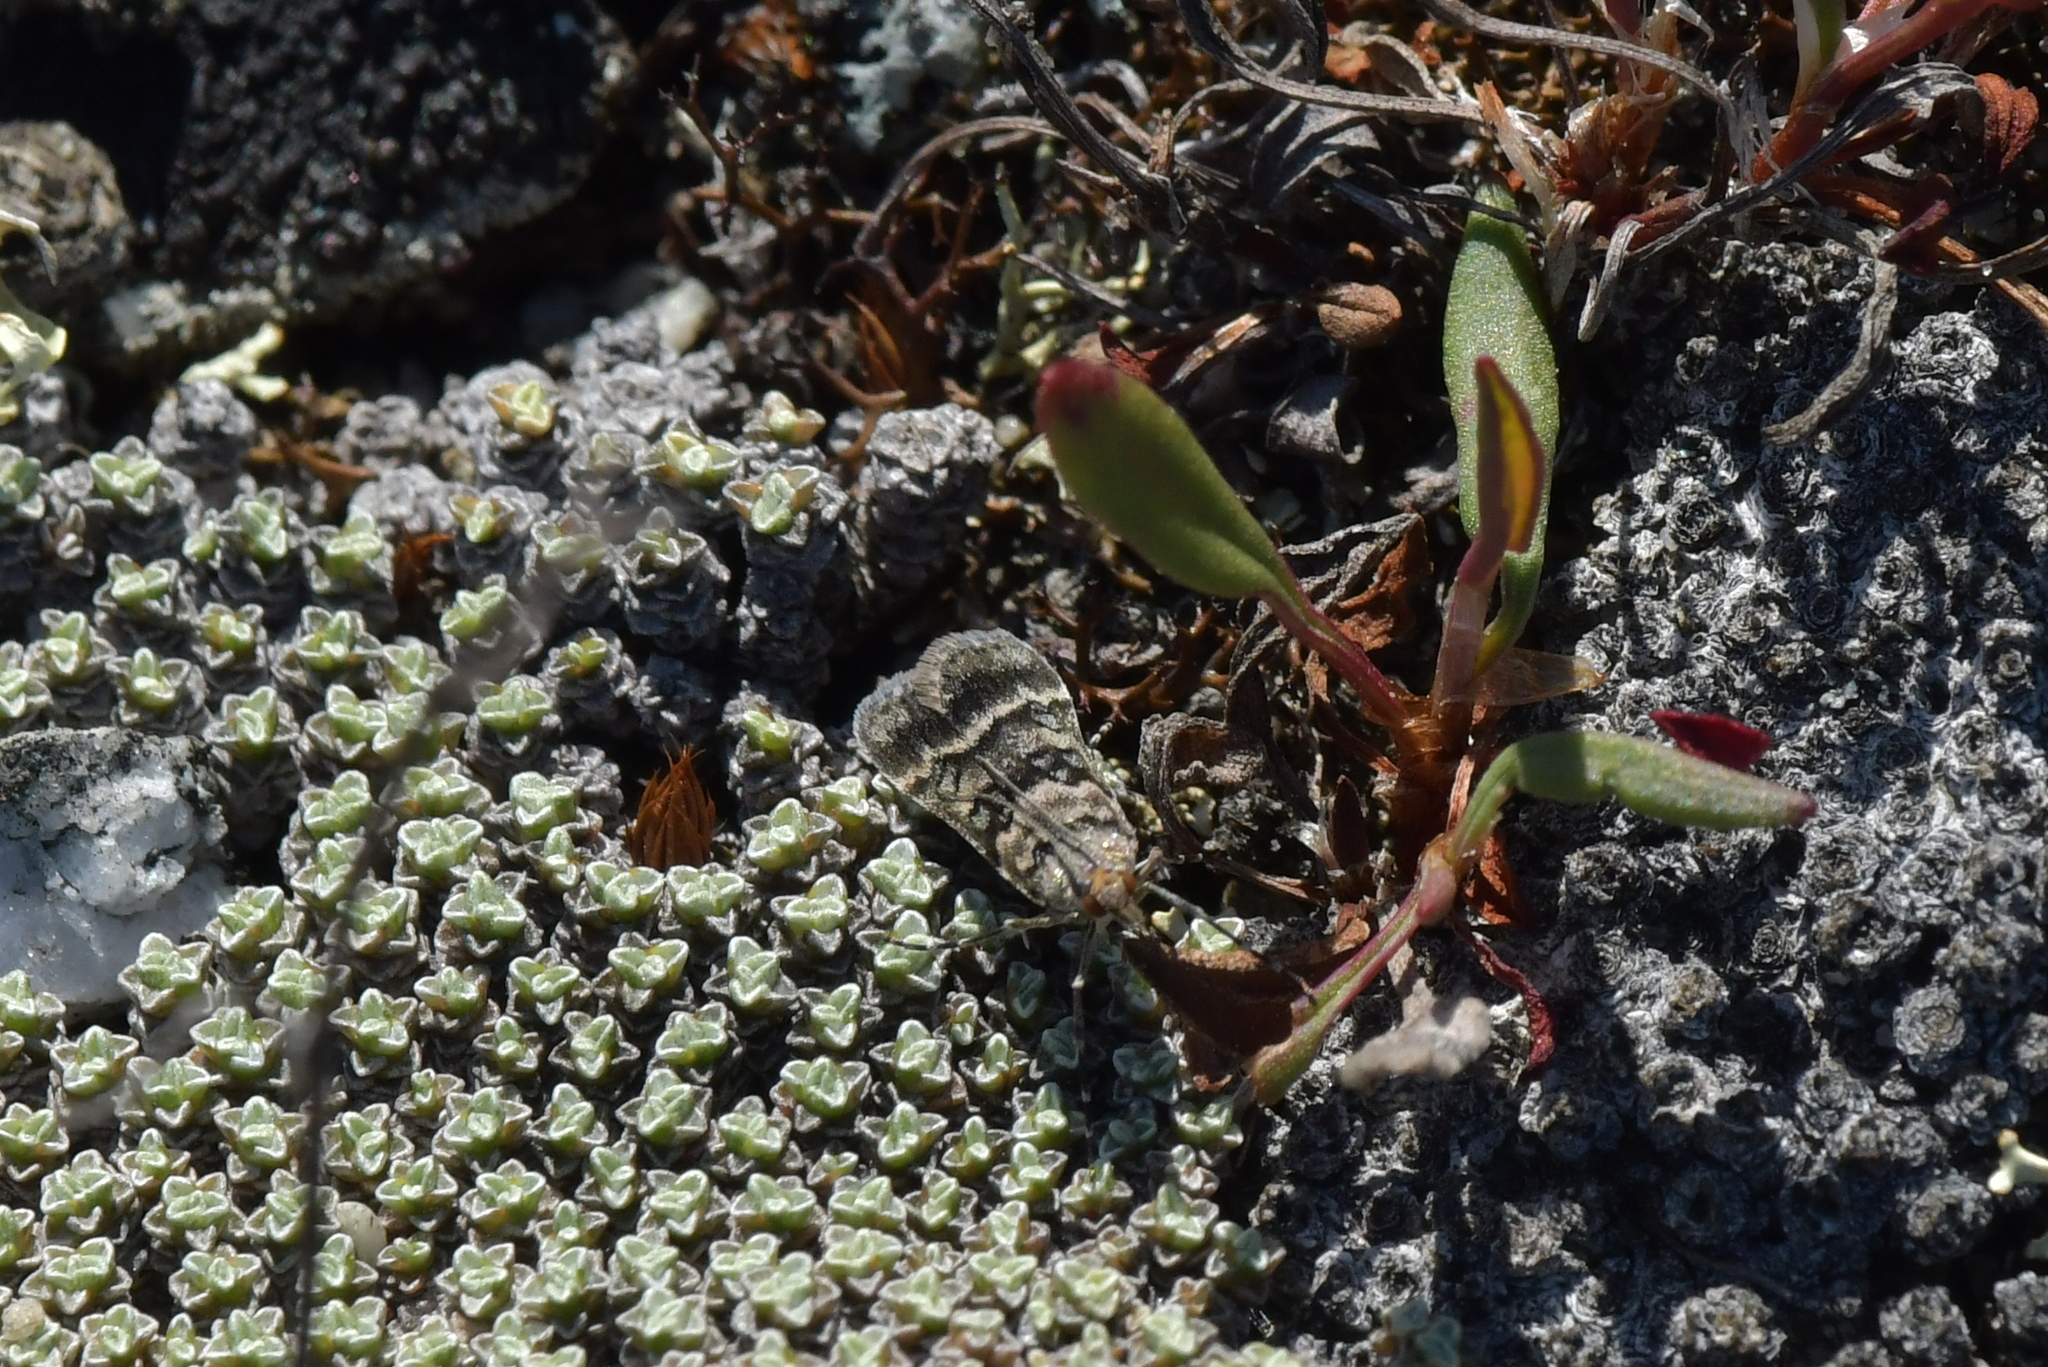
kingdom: Animalia
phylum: Arthropoda
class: Insecta
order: Lepidoptera
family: Crambidae
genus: Eudonia
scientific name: Eudonia gyrotoma
